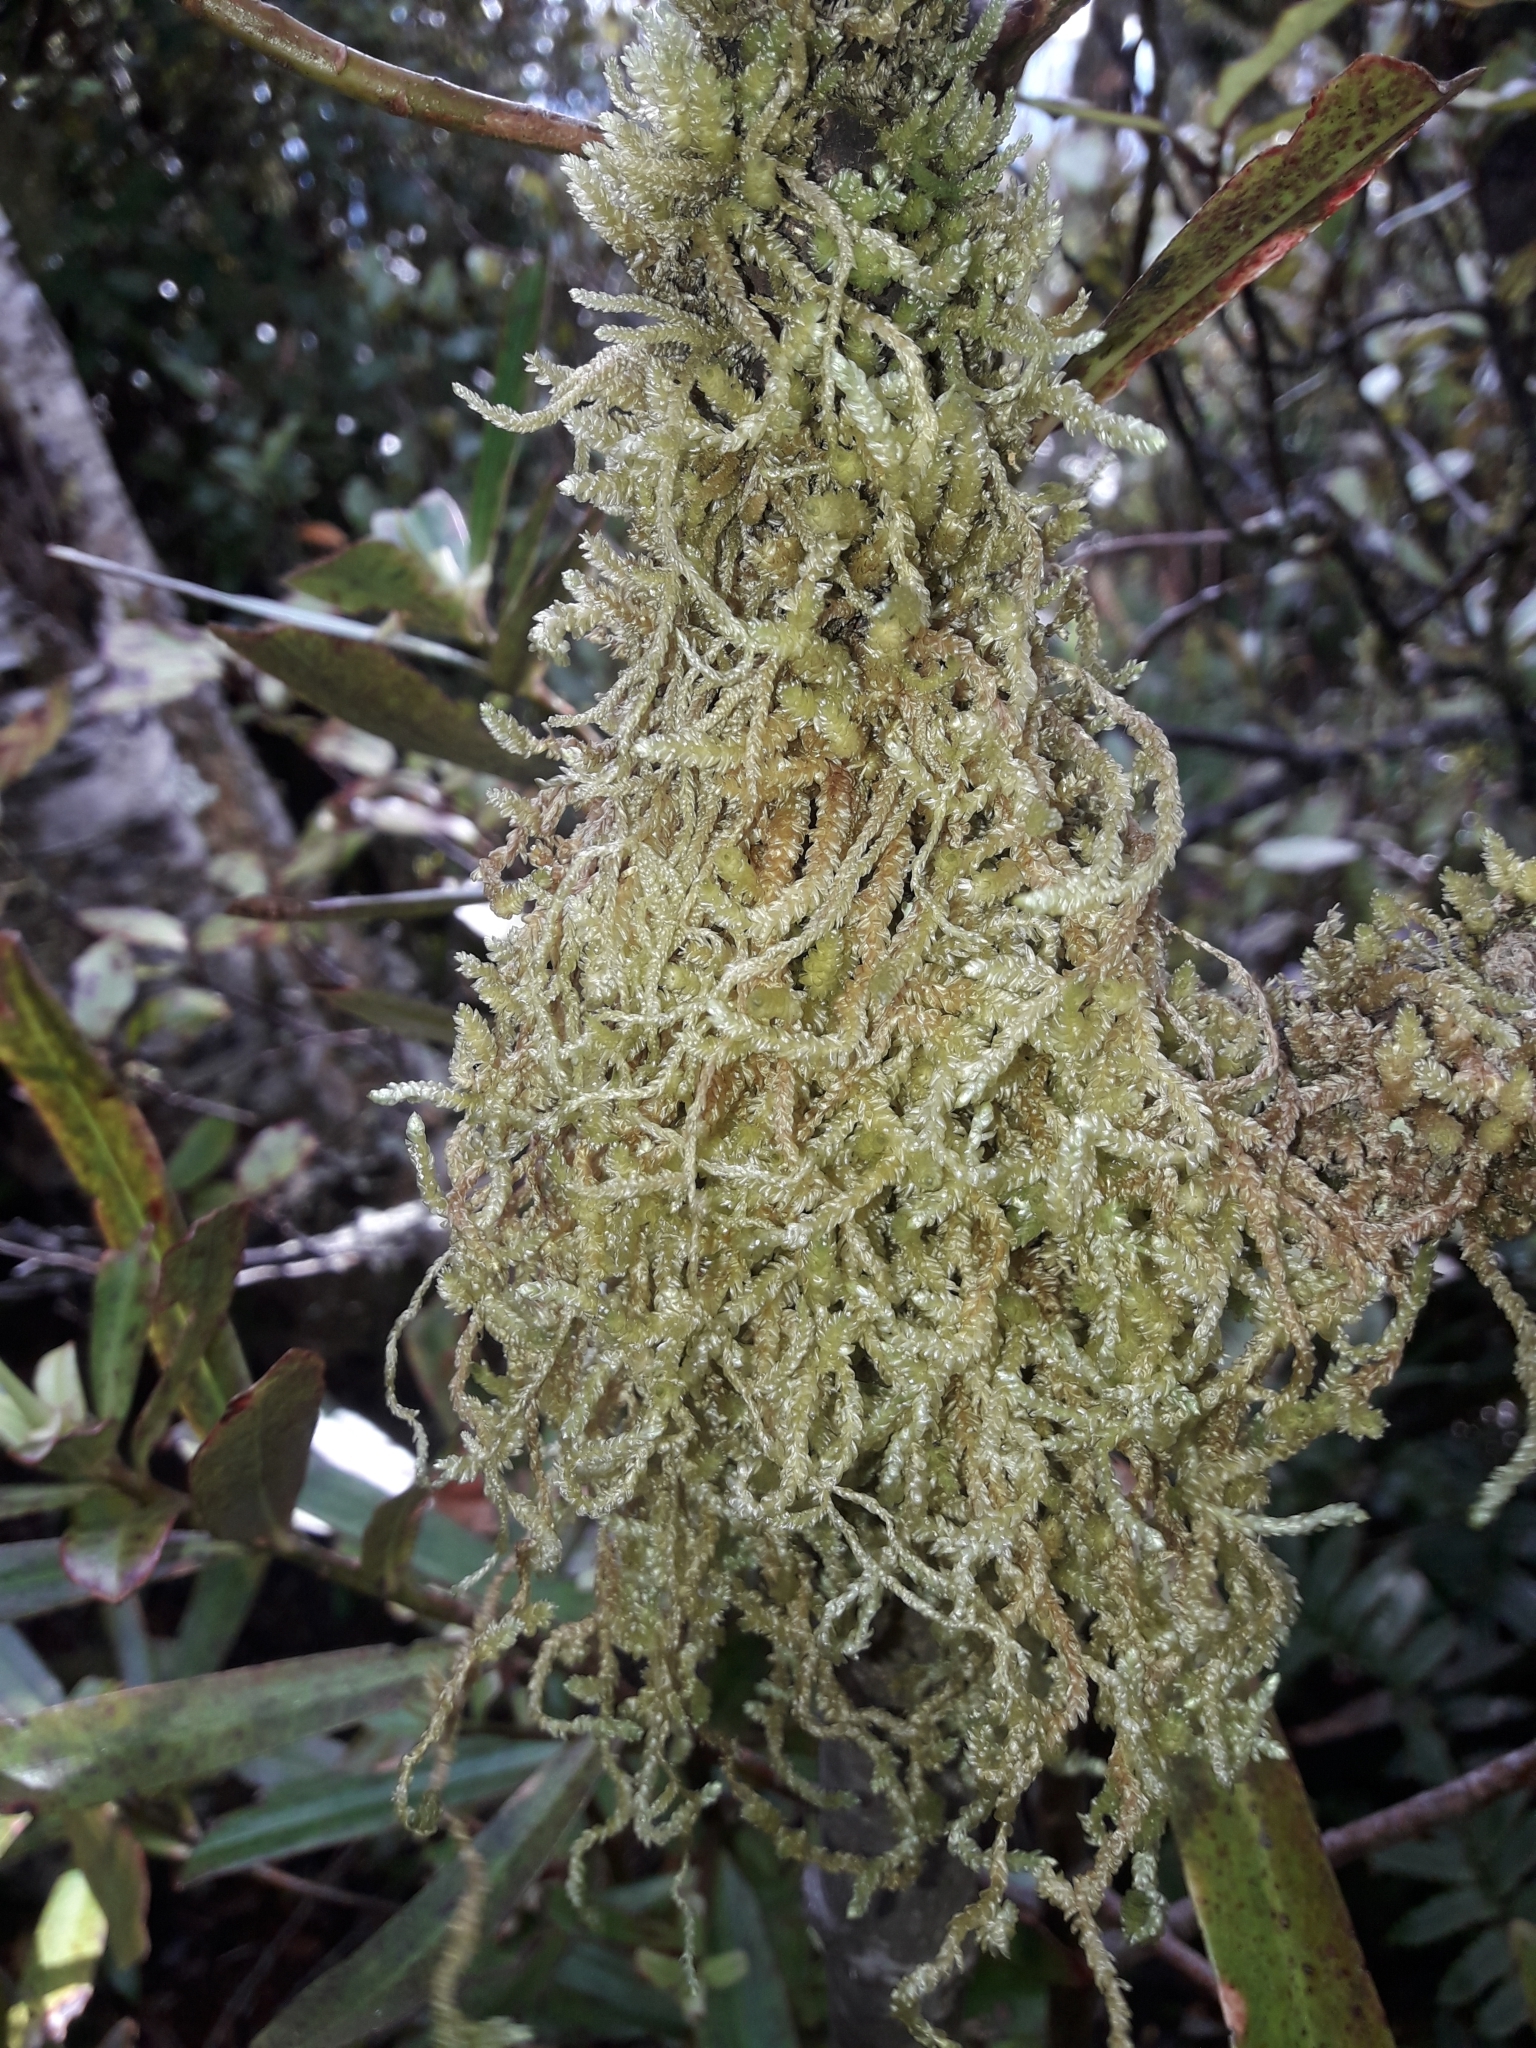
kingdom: Plantae
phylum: Bryophyta
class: Bryopsida
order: Hypnales
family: Lembophyllaceae
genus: Weymouthia
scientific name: Weymouthia cochlearifolia
